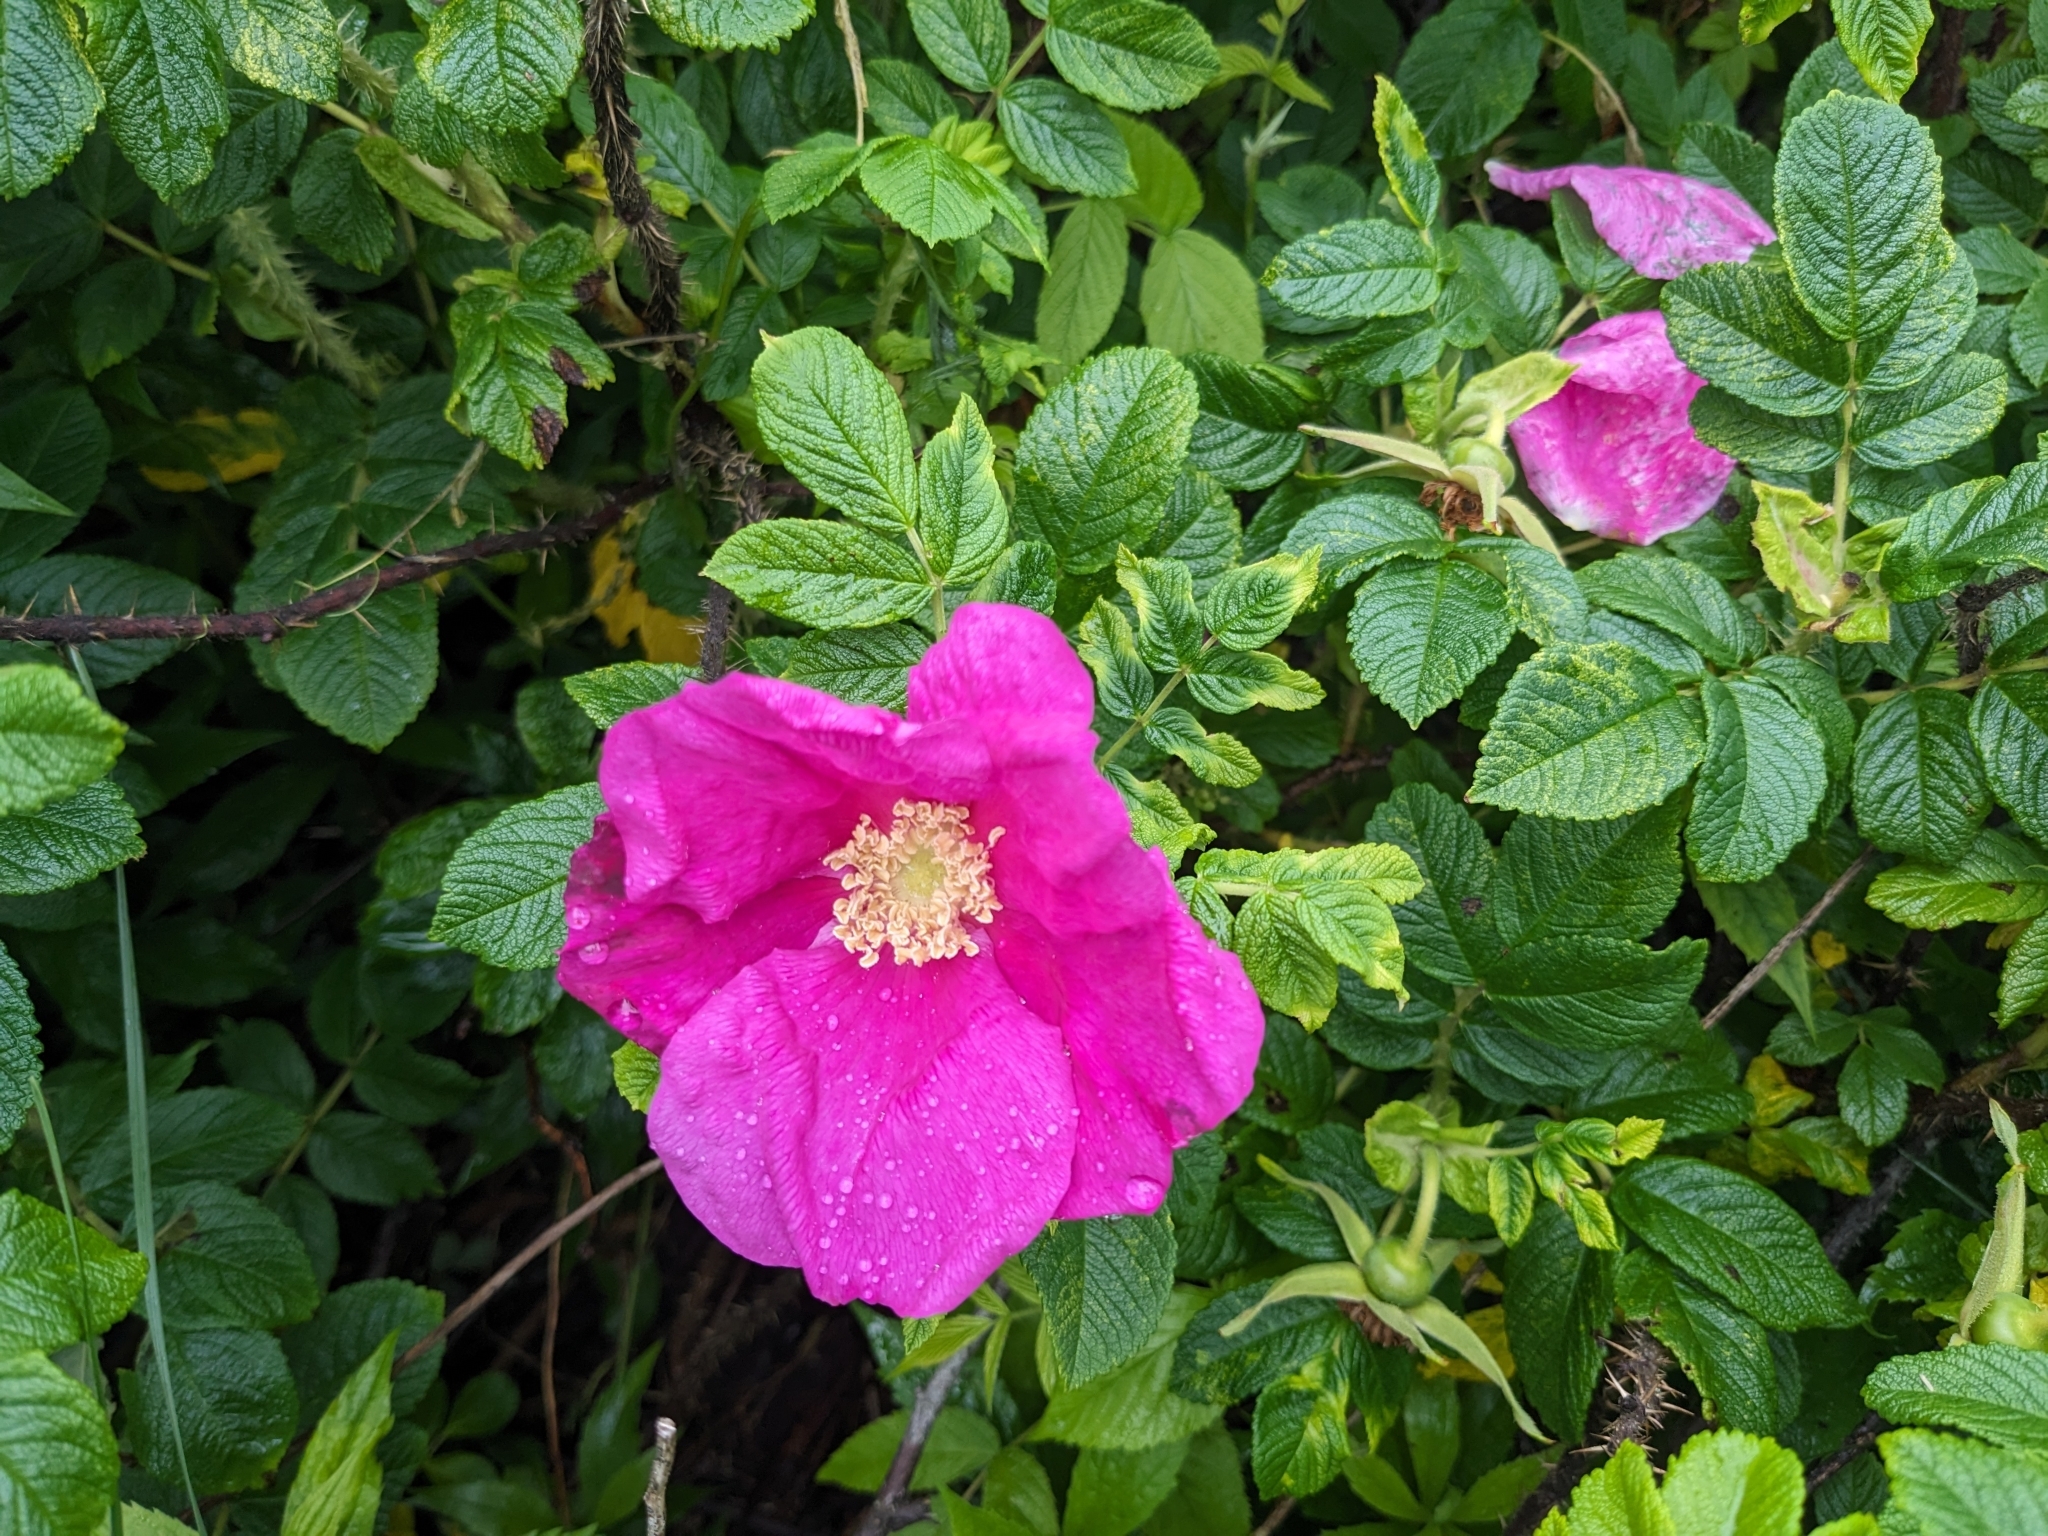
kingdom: Plantae
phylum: Tracheophyta
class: Magnoliopsida
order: Rosales
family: Rosaceae
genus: Rosa
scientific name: Rosa rugosa
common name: Japanese rose
